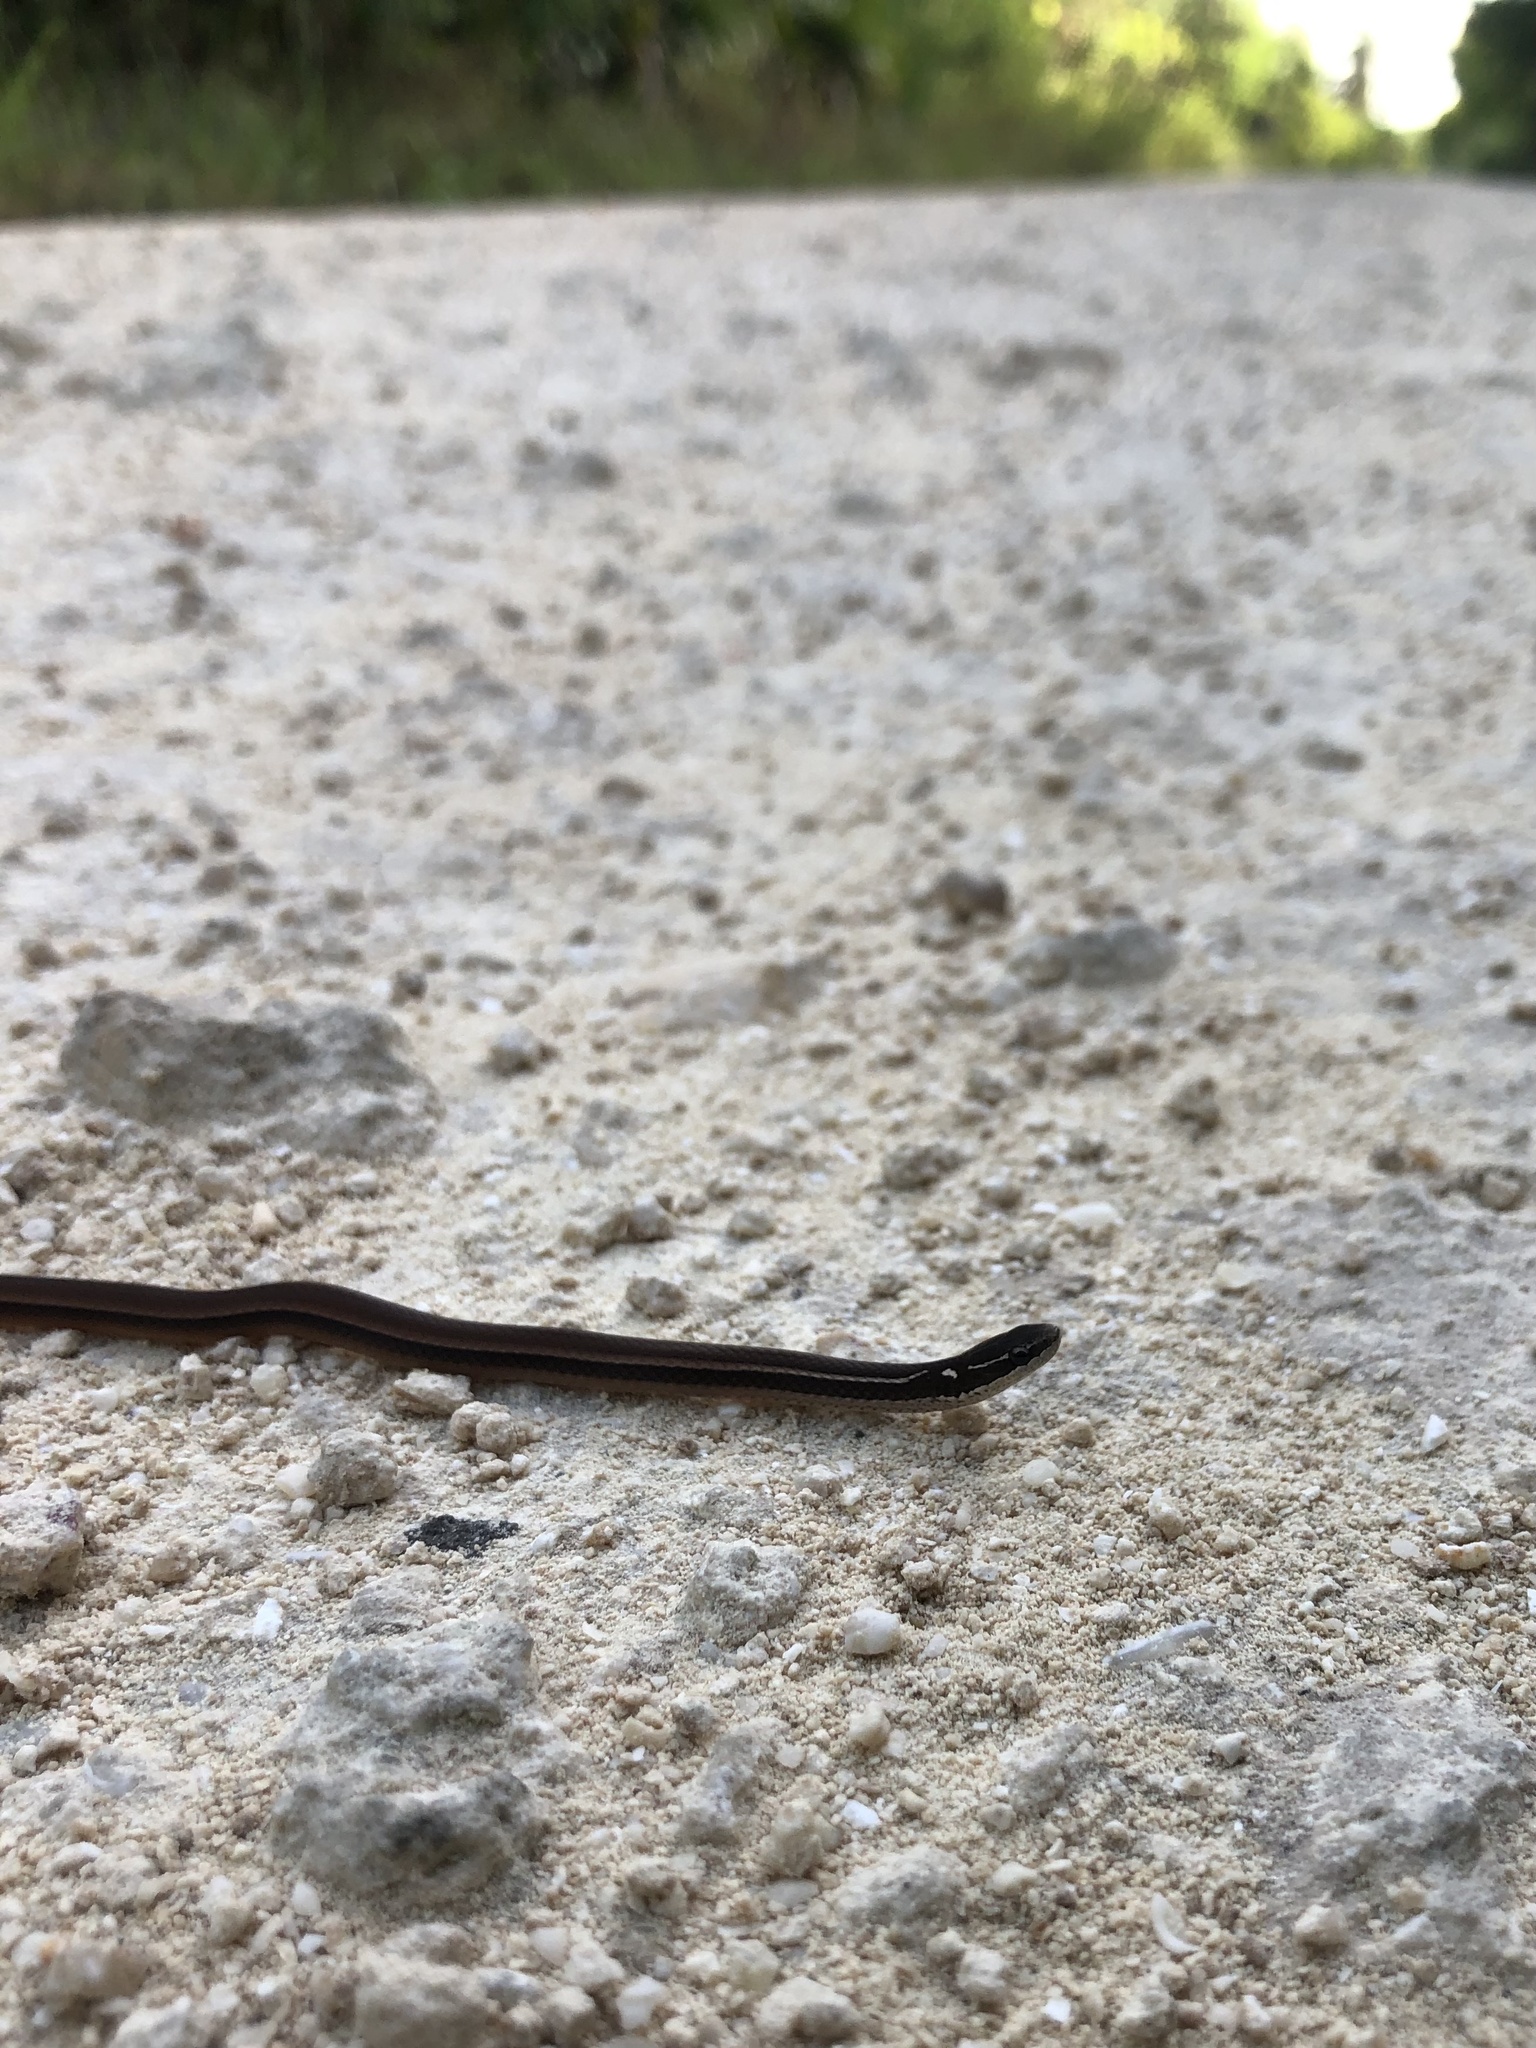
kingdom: Animalia
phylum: Chordata
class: Squamata
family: Colubridae
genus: Coniophanes
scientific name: Coniophanes imperialis
